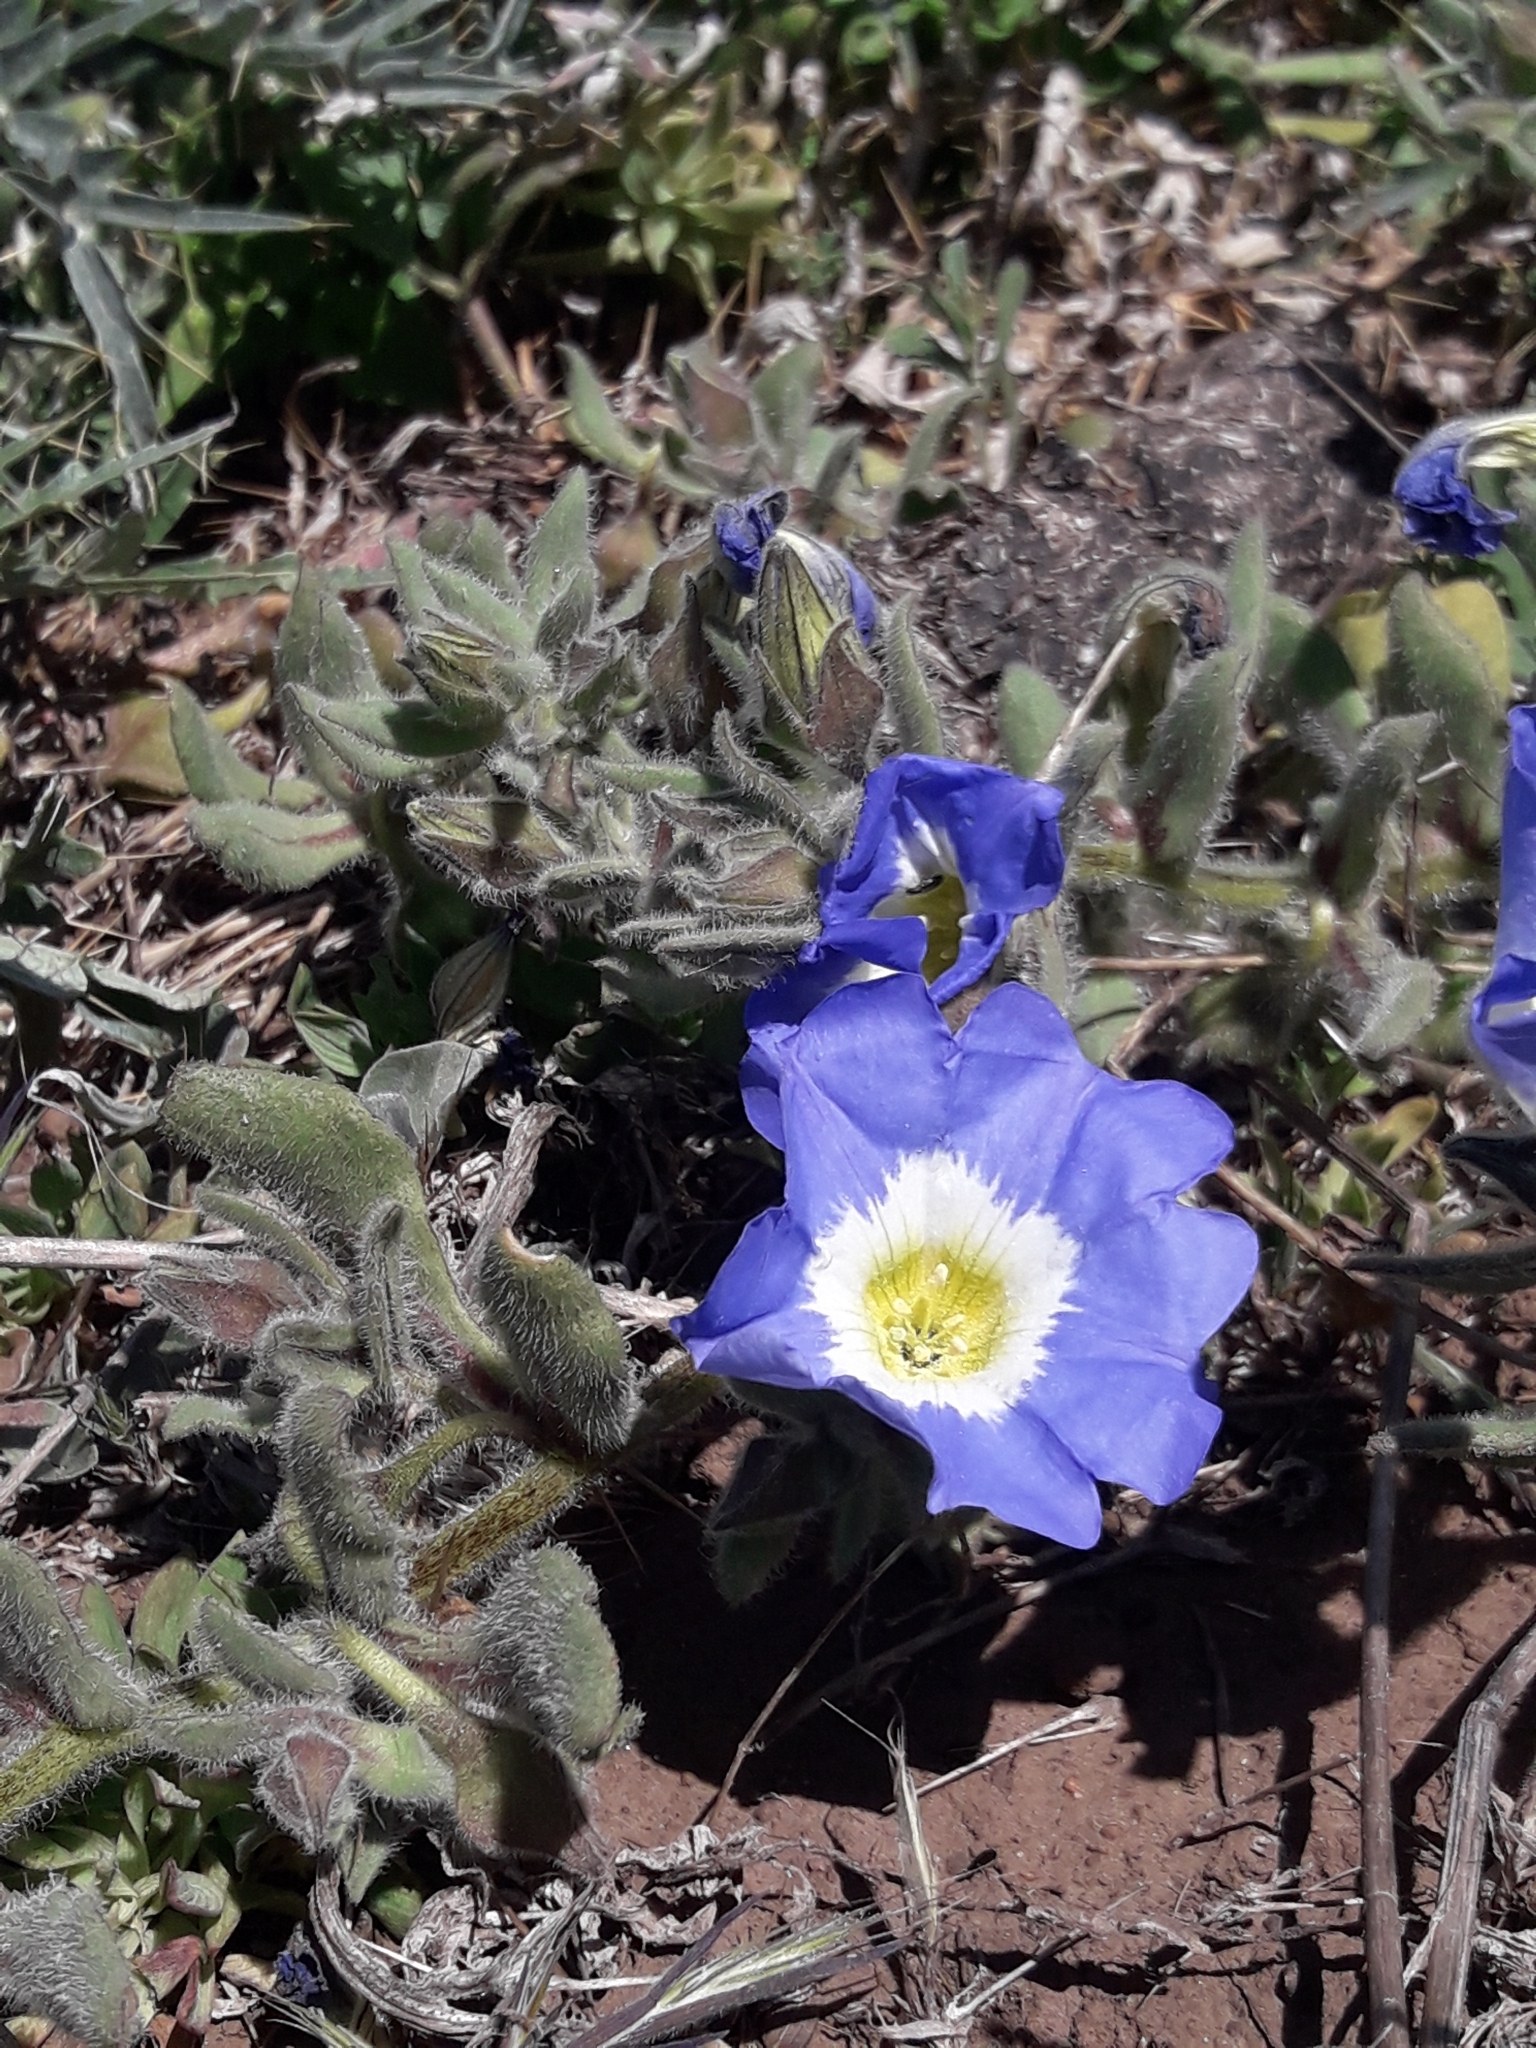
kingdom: Plantae
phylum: Tracheophyta
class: Magnoliopsida
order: Solanales
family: Solanaceae
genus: Nolana
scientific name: Nolana acuminata
